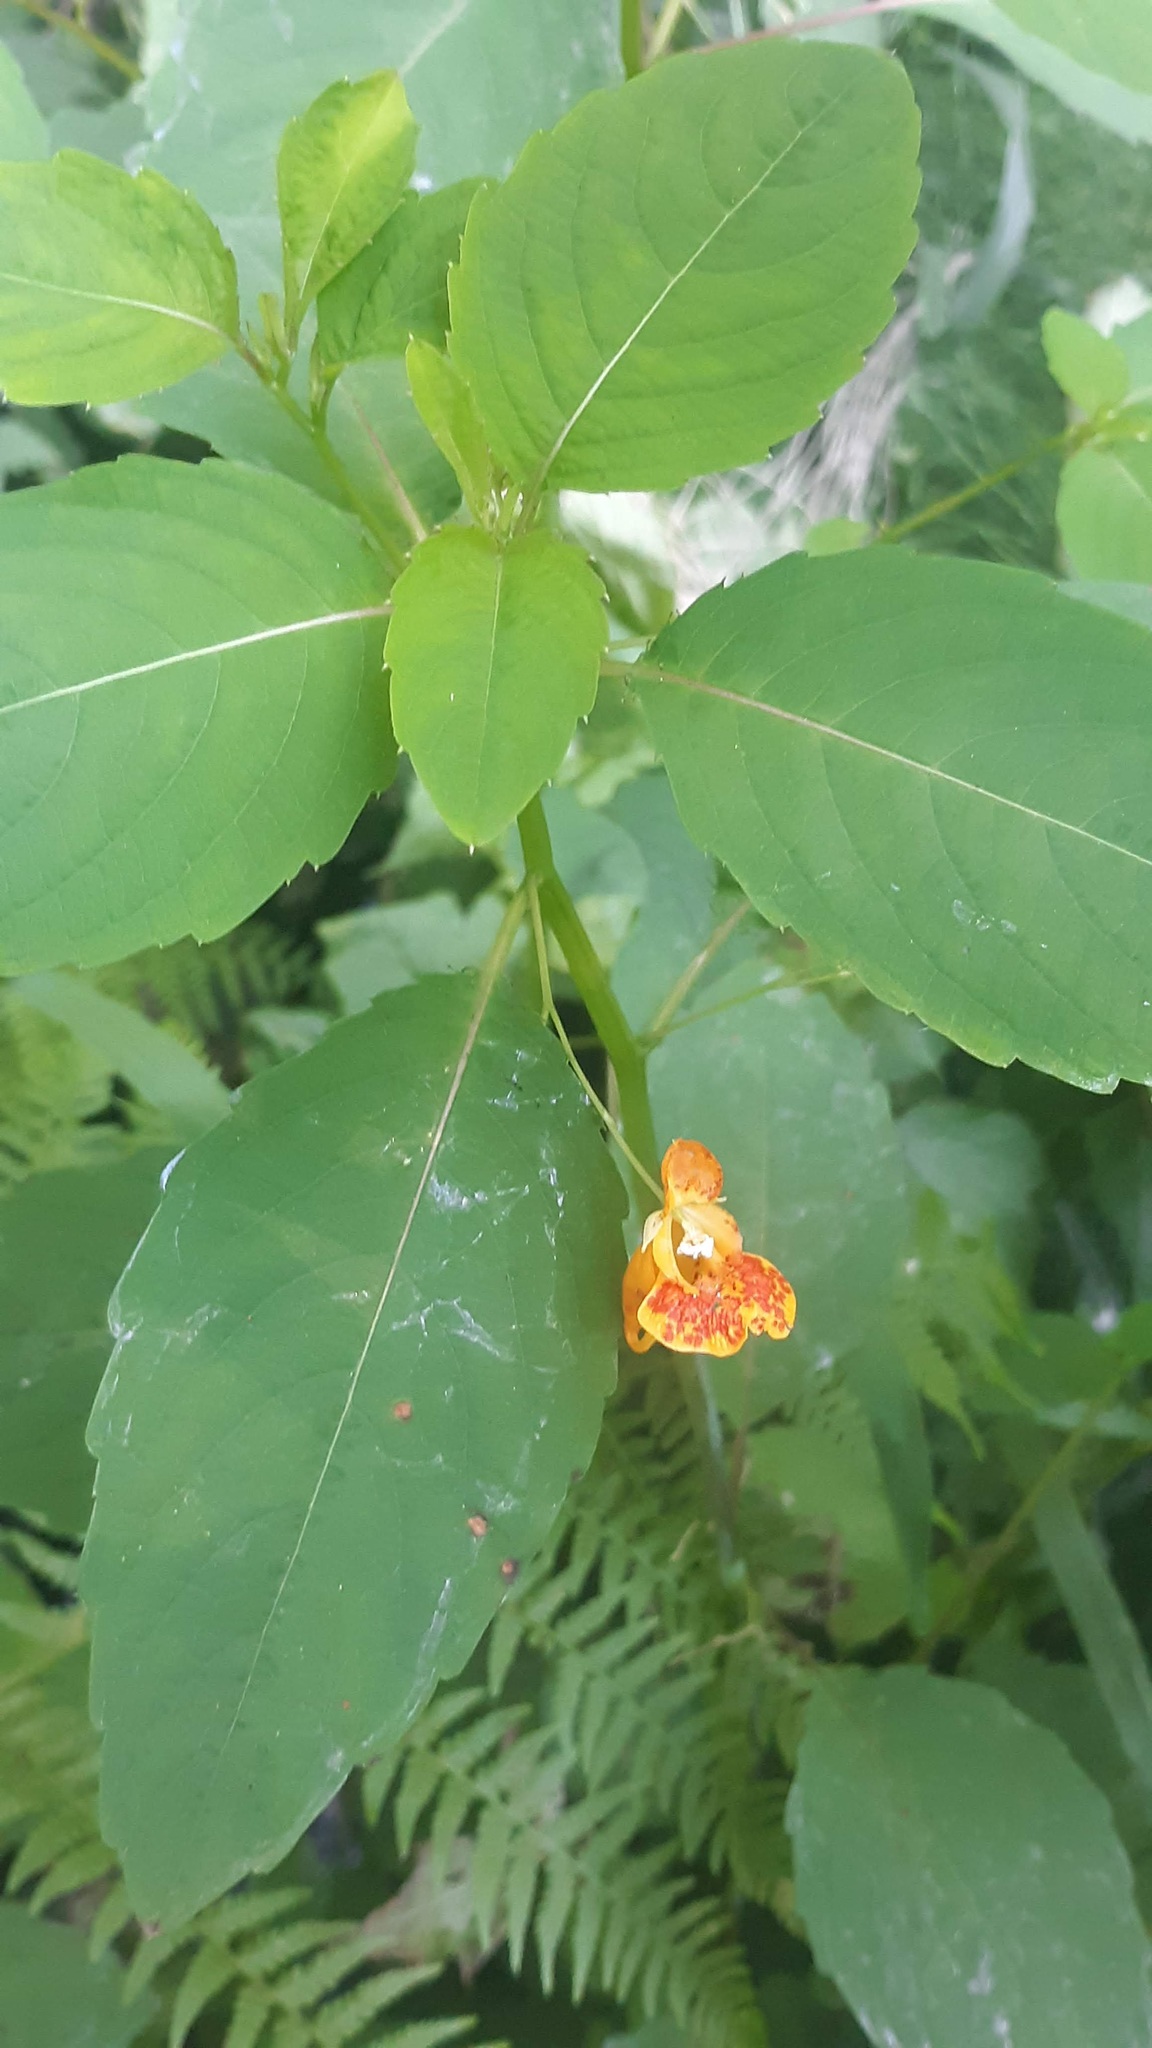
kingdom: Plantae
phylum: Tracheophyta
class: Magnoliopsida
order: Ericales
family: Balsaminaceae
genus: Impatiens
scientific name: Impatiens capensis
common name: Orange balsam
